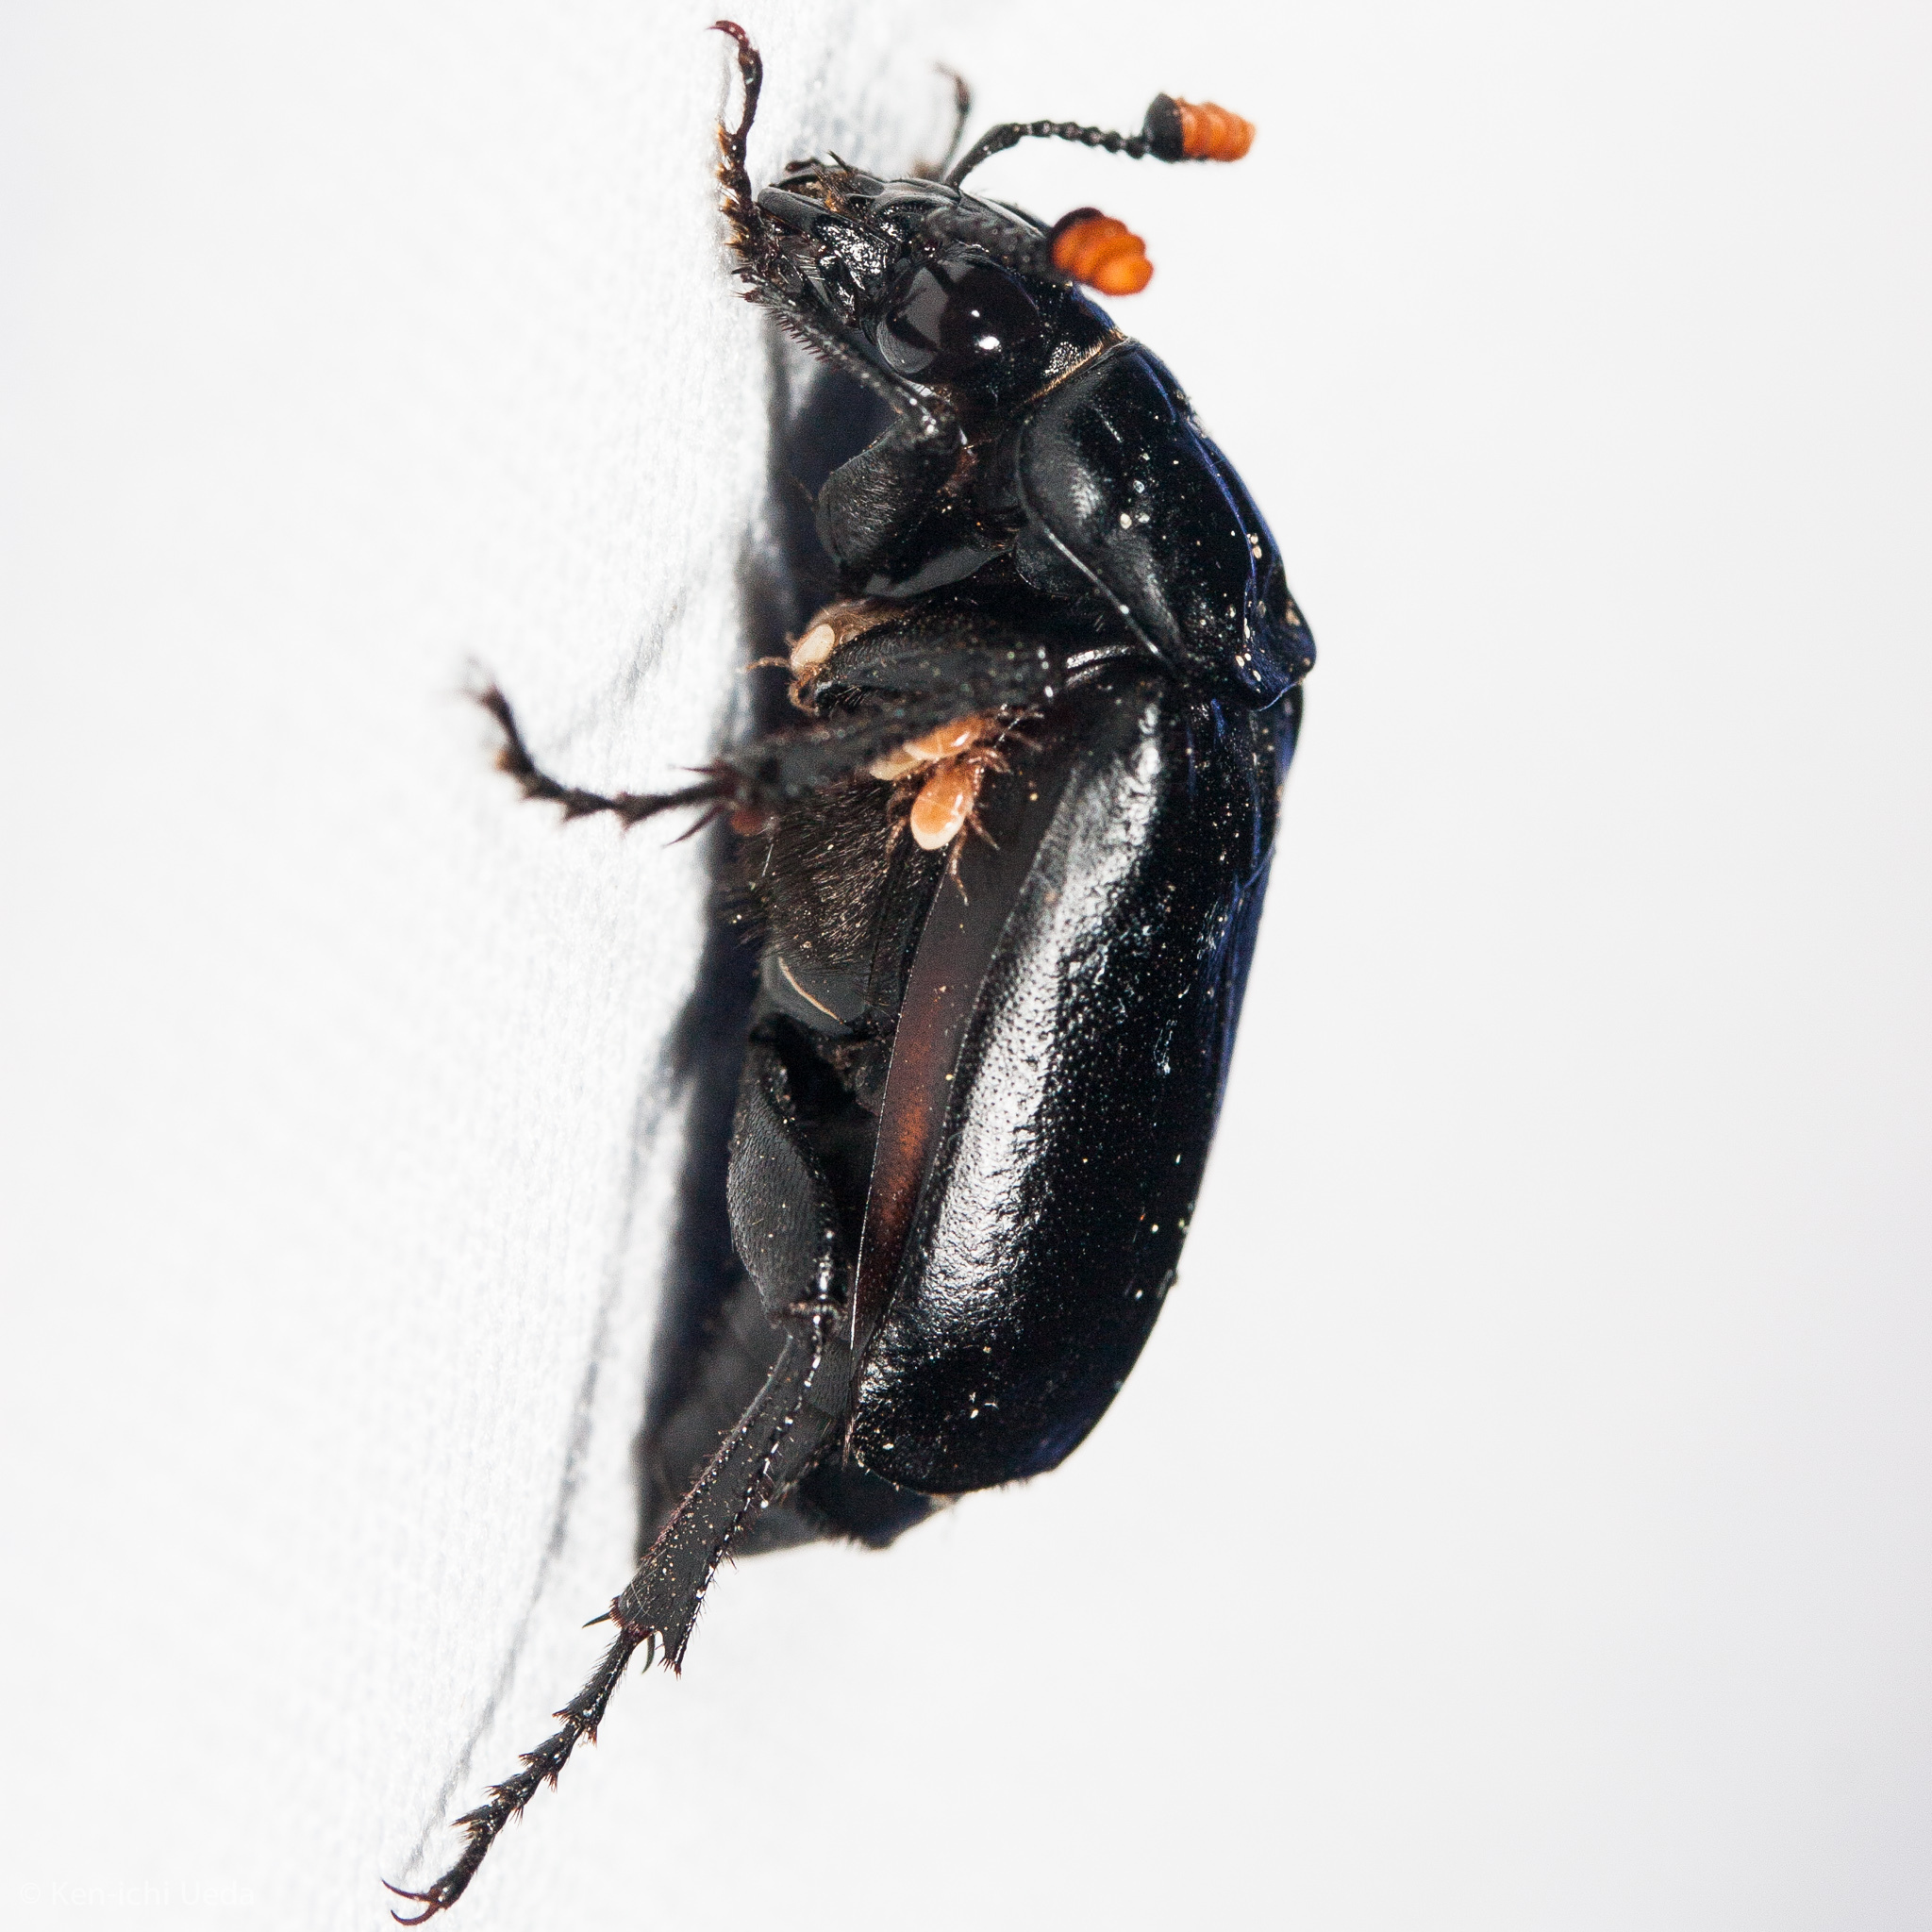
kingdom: Animalia
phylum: Arthropoda
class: Insecta
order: Coleoptera
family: Staphylinidae
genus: Nicrophorus
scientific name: Nicrophorus nigrita
